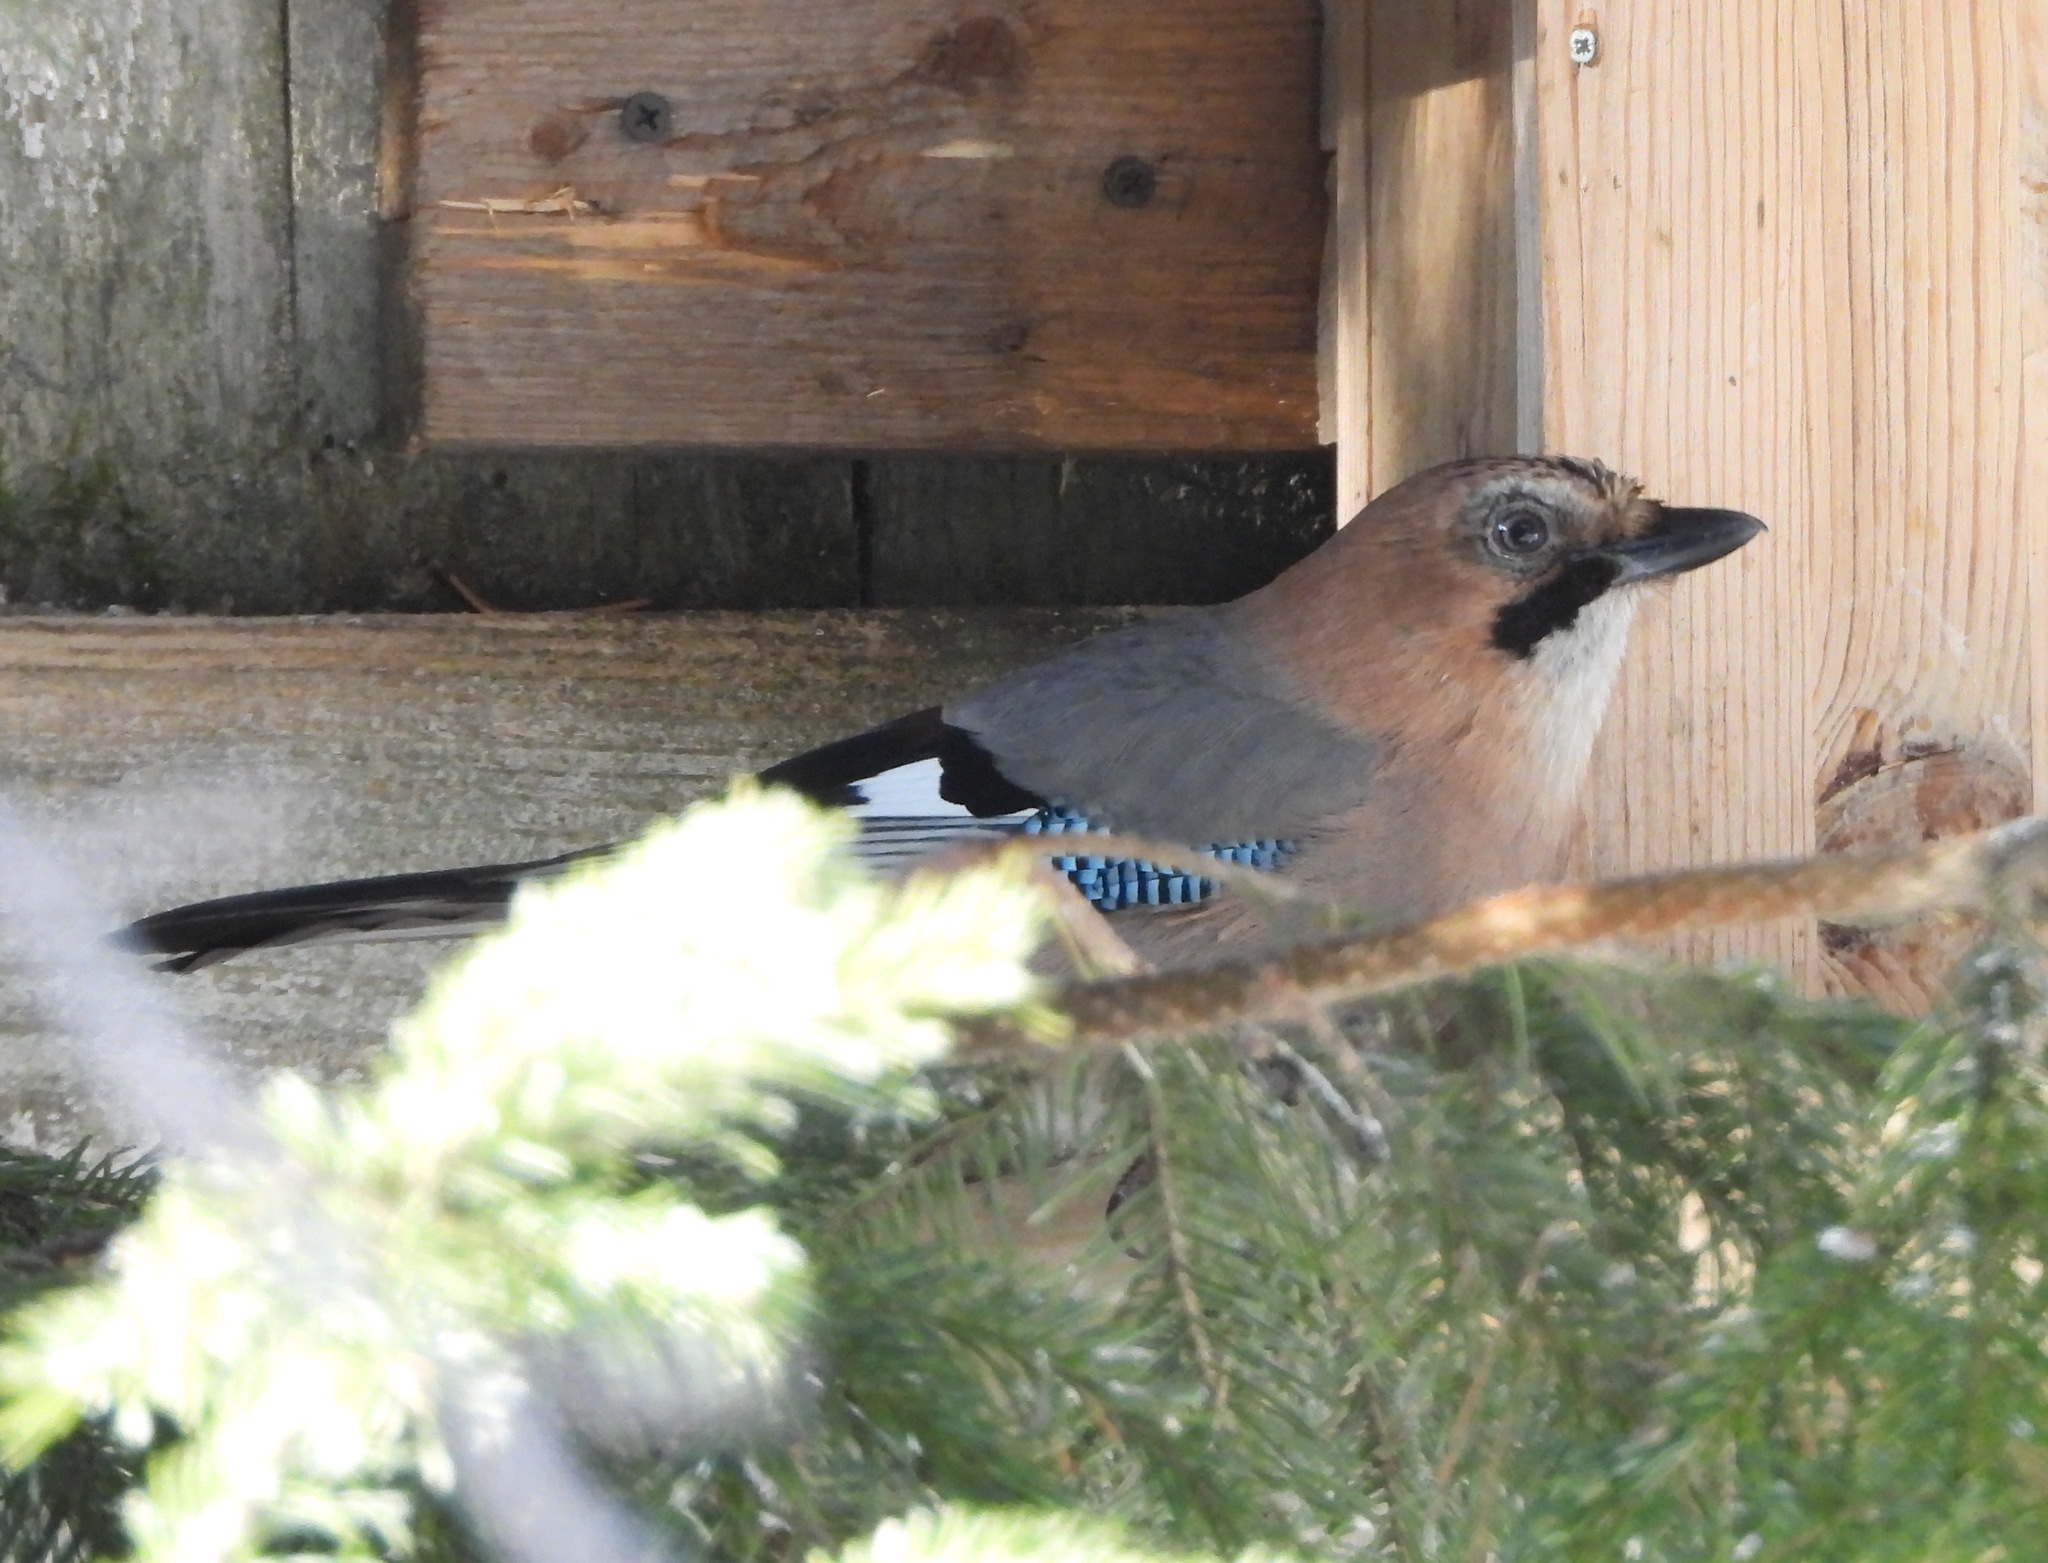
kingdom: Animalia
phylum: Chordata
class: Aves
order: Passeriformes
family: Corvidae
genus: Garrulus
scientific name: Garrulus glandarius
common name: Eurasian jay
